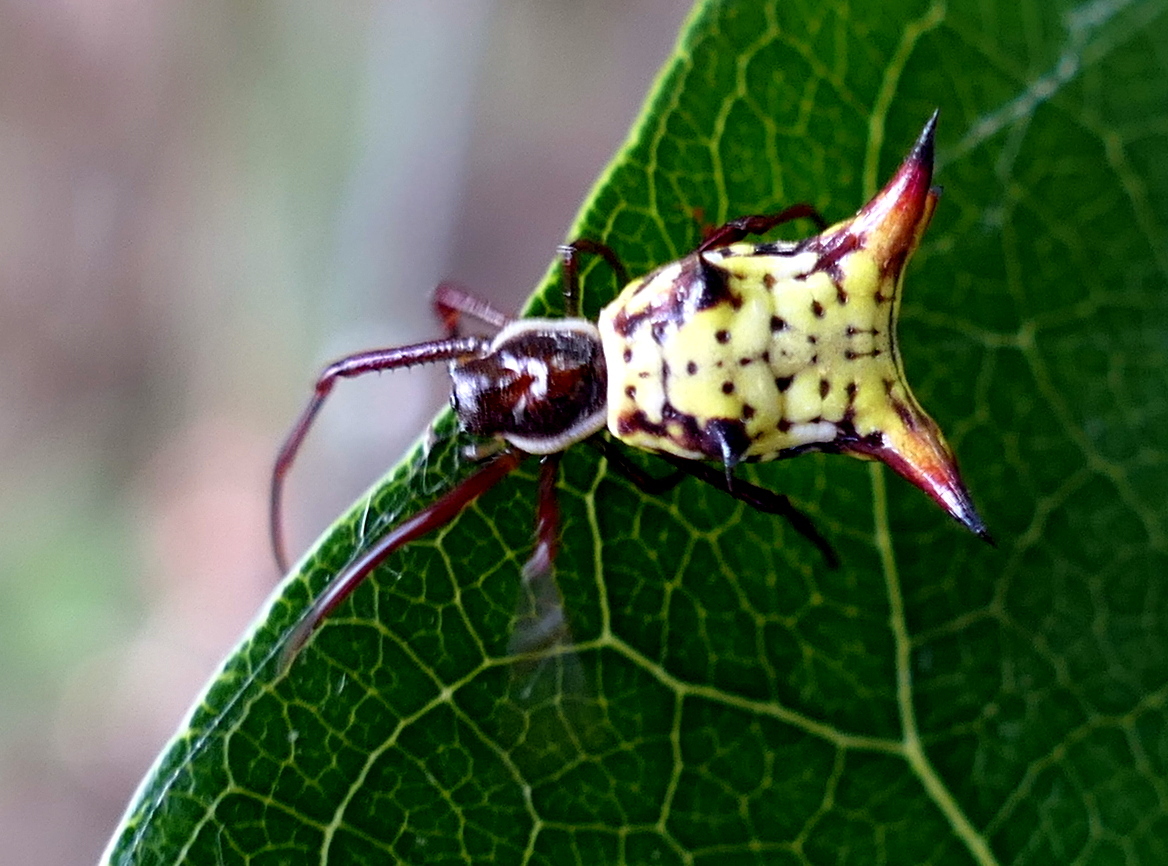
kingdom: Animalia
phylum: Arthropoda
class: Arachnida
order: Araneae
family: Araneidae
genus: Micrathena
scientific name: Micrathena fissispina
